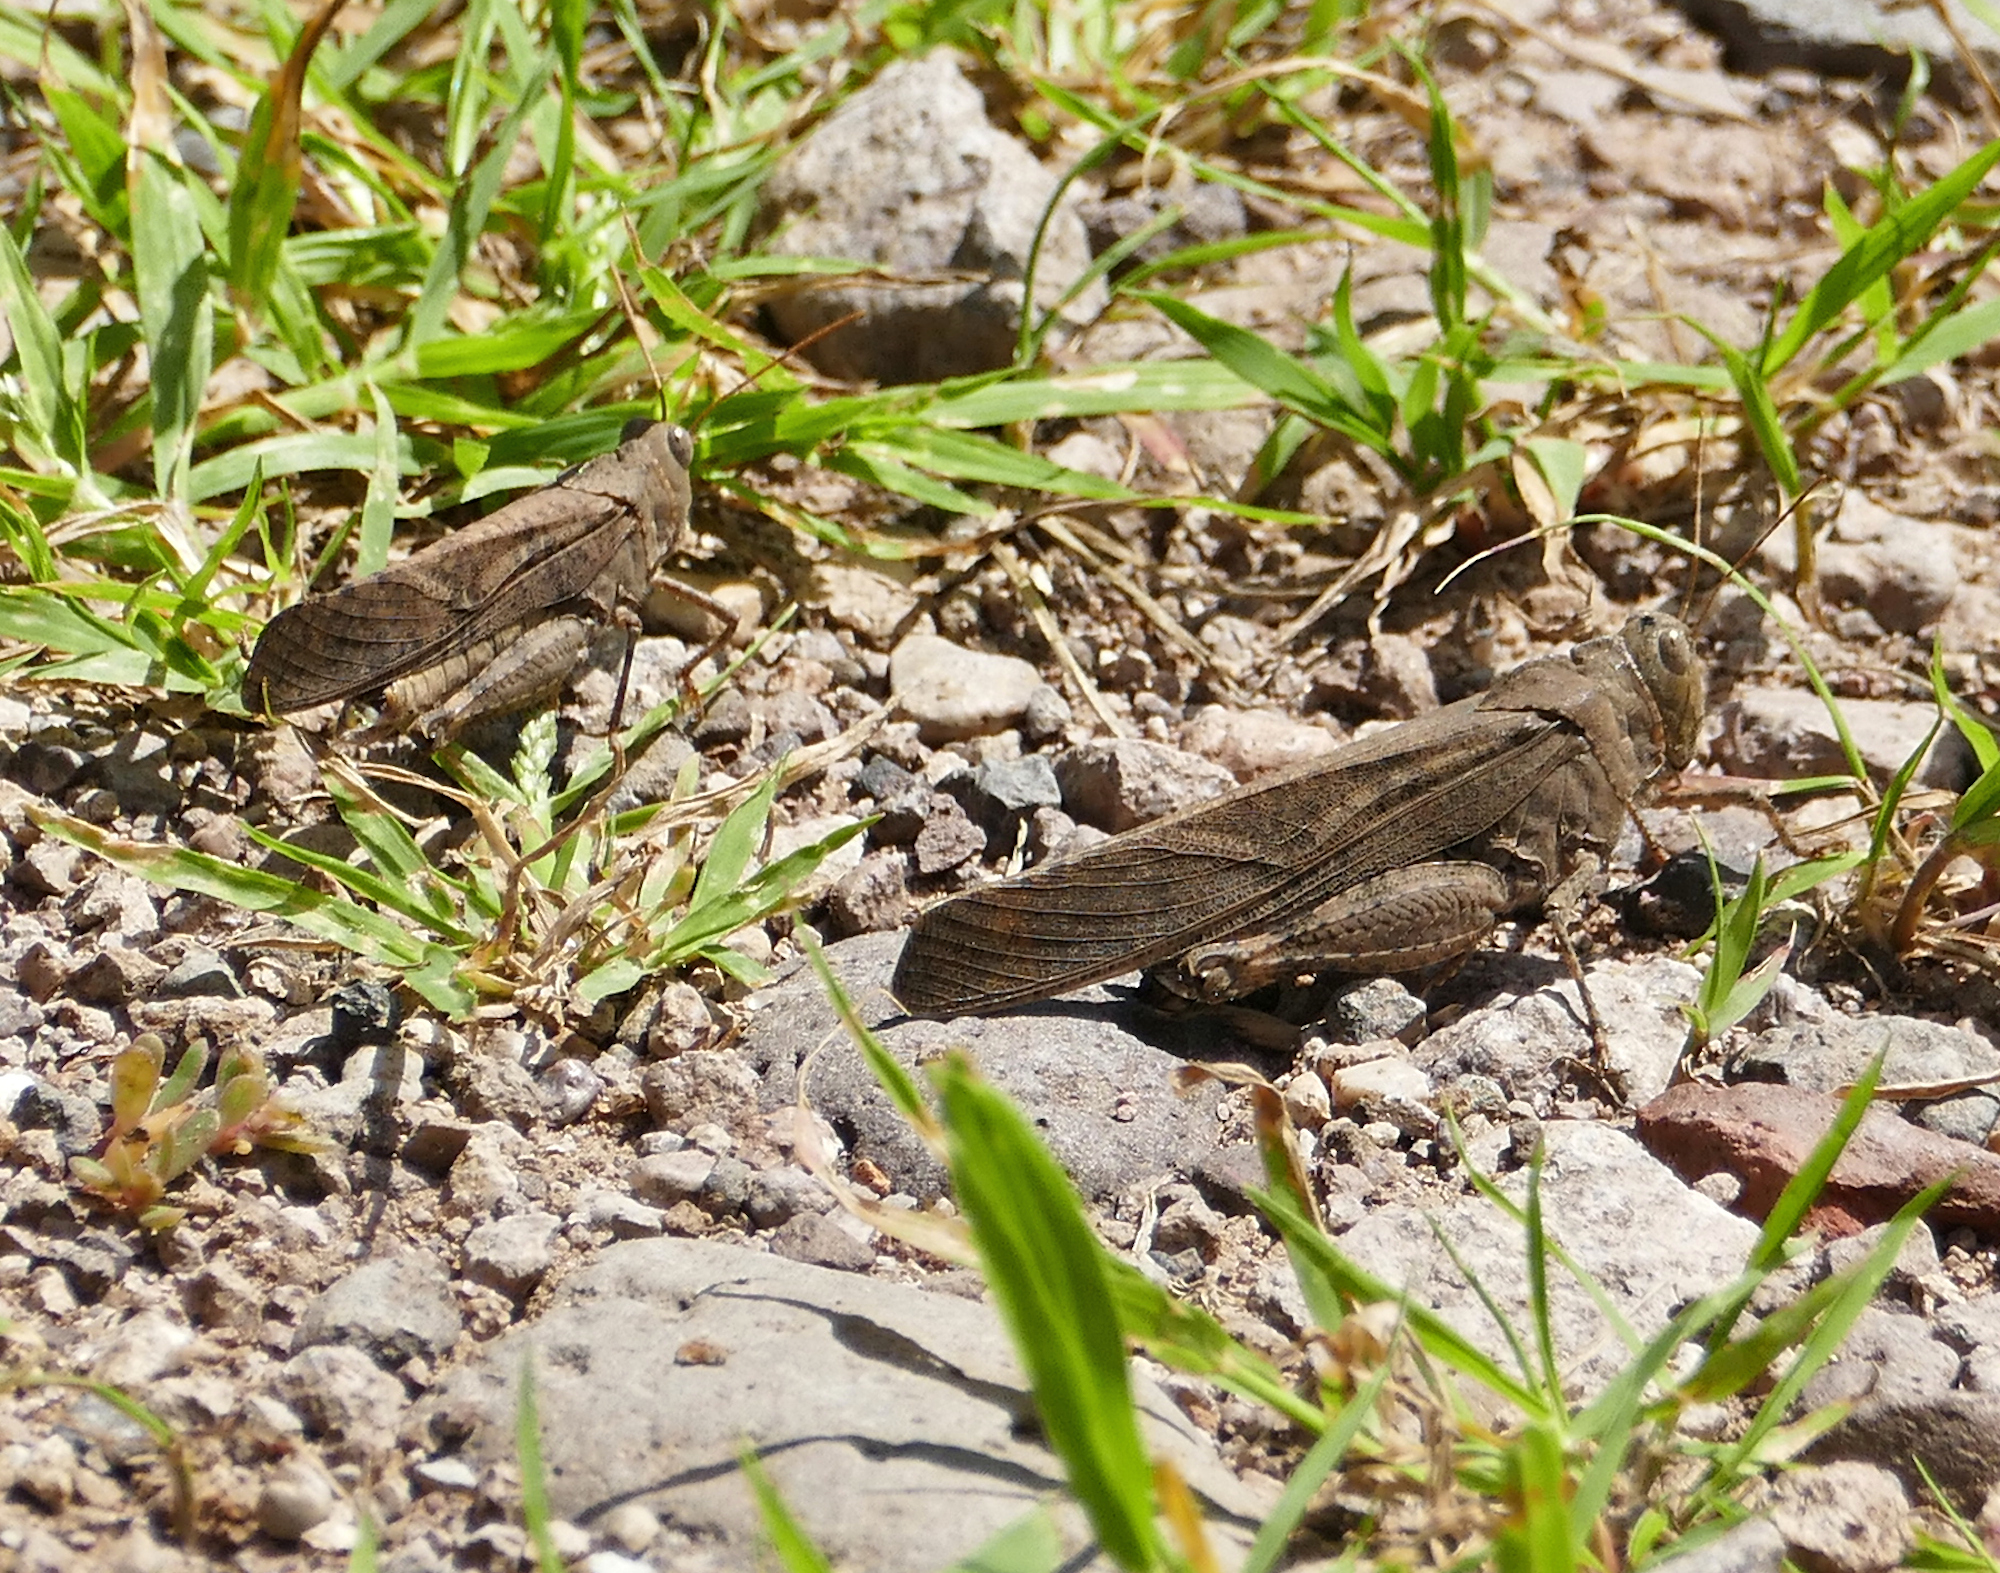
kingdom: Animalia
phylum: Arthropoda
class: Insecta
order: Orthoptera
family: Acrididae
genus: Dissosteira
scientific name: Dissosteira carolina
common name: Carolina grasshopper
